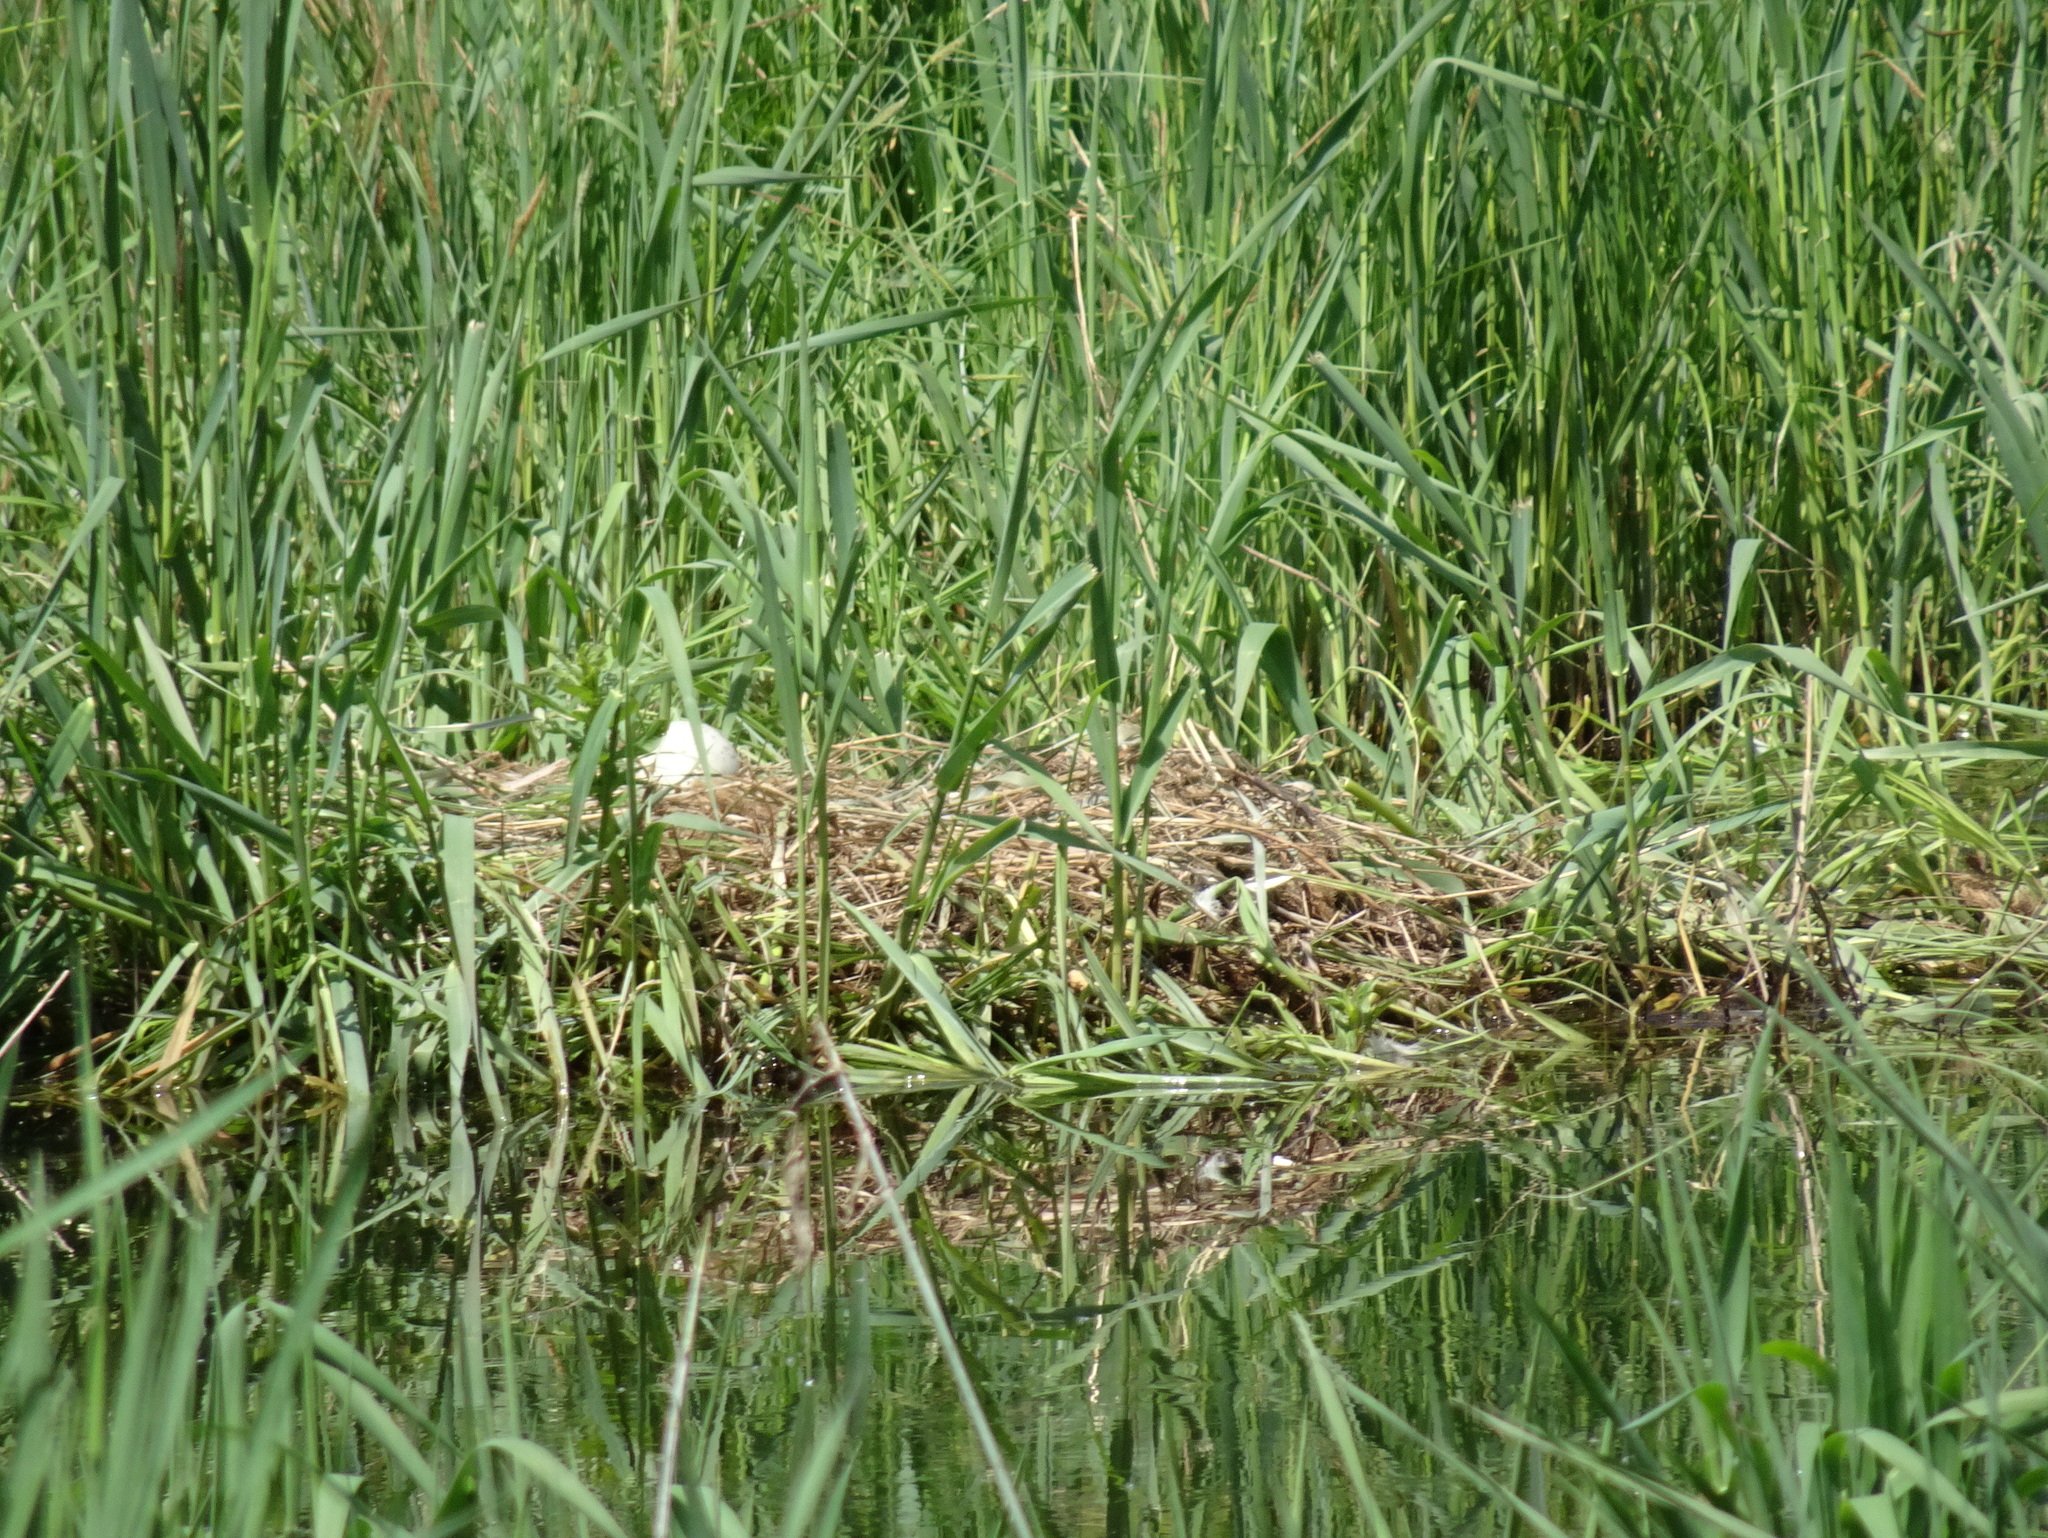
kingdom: Animalia
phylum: Chordata
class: Aves
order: Gruiformes
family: Gruidae
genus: Grus
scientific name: Grus canadensis
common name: Sandhill crane
